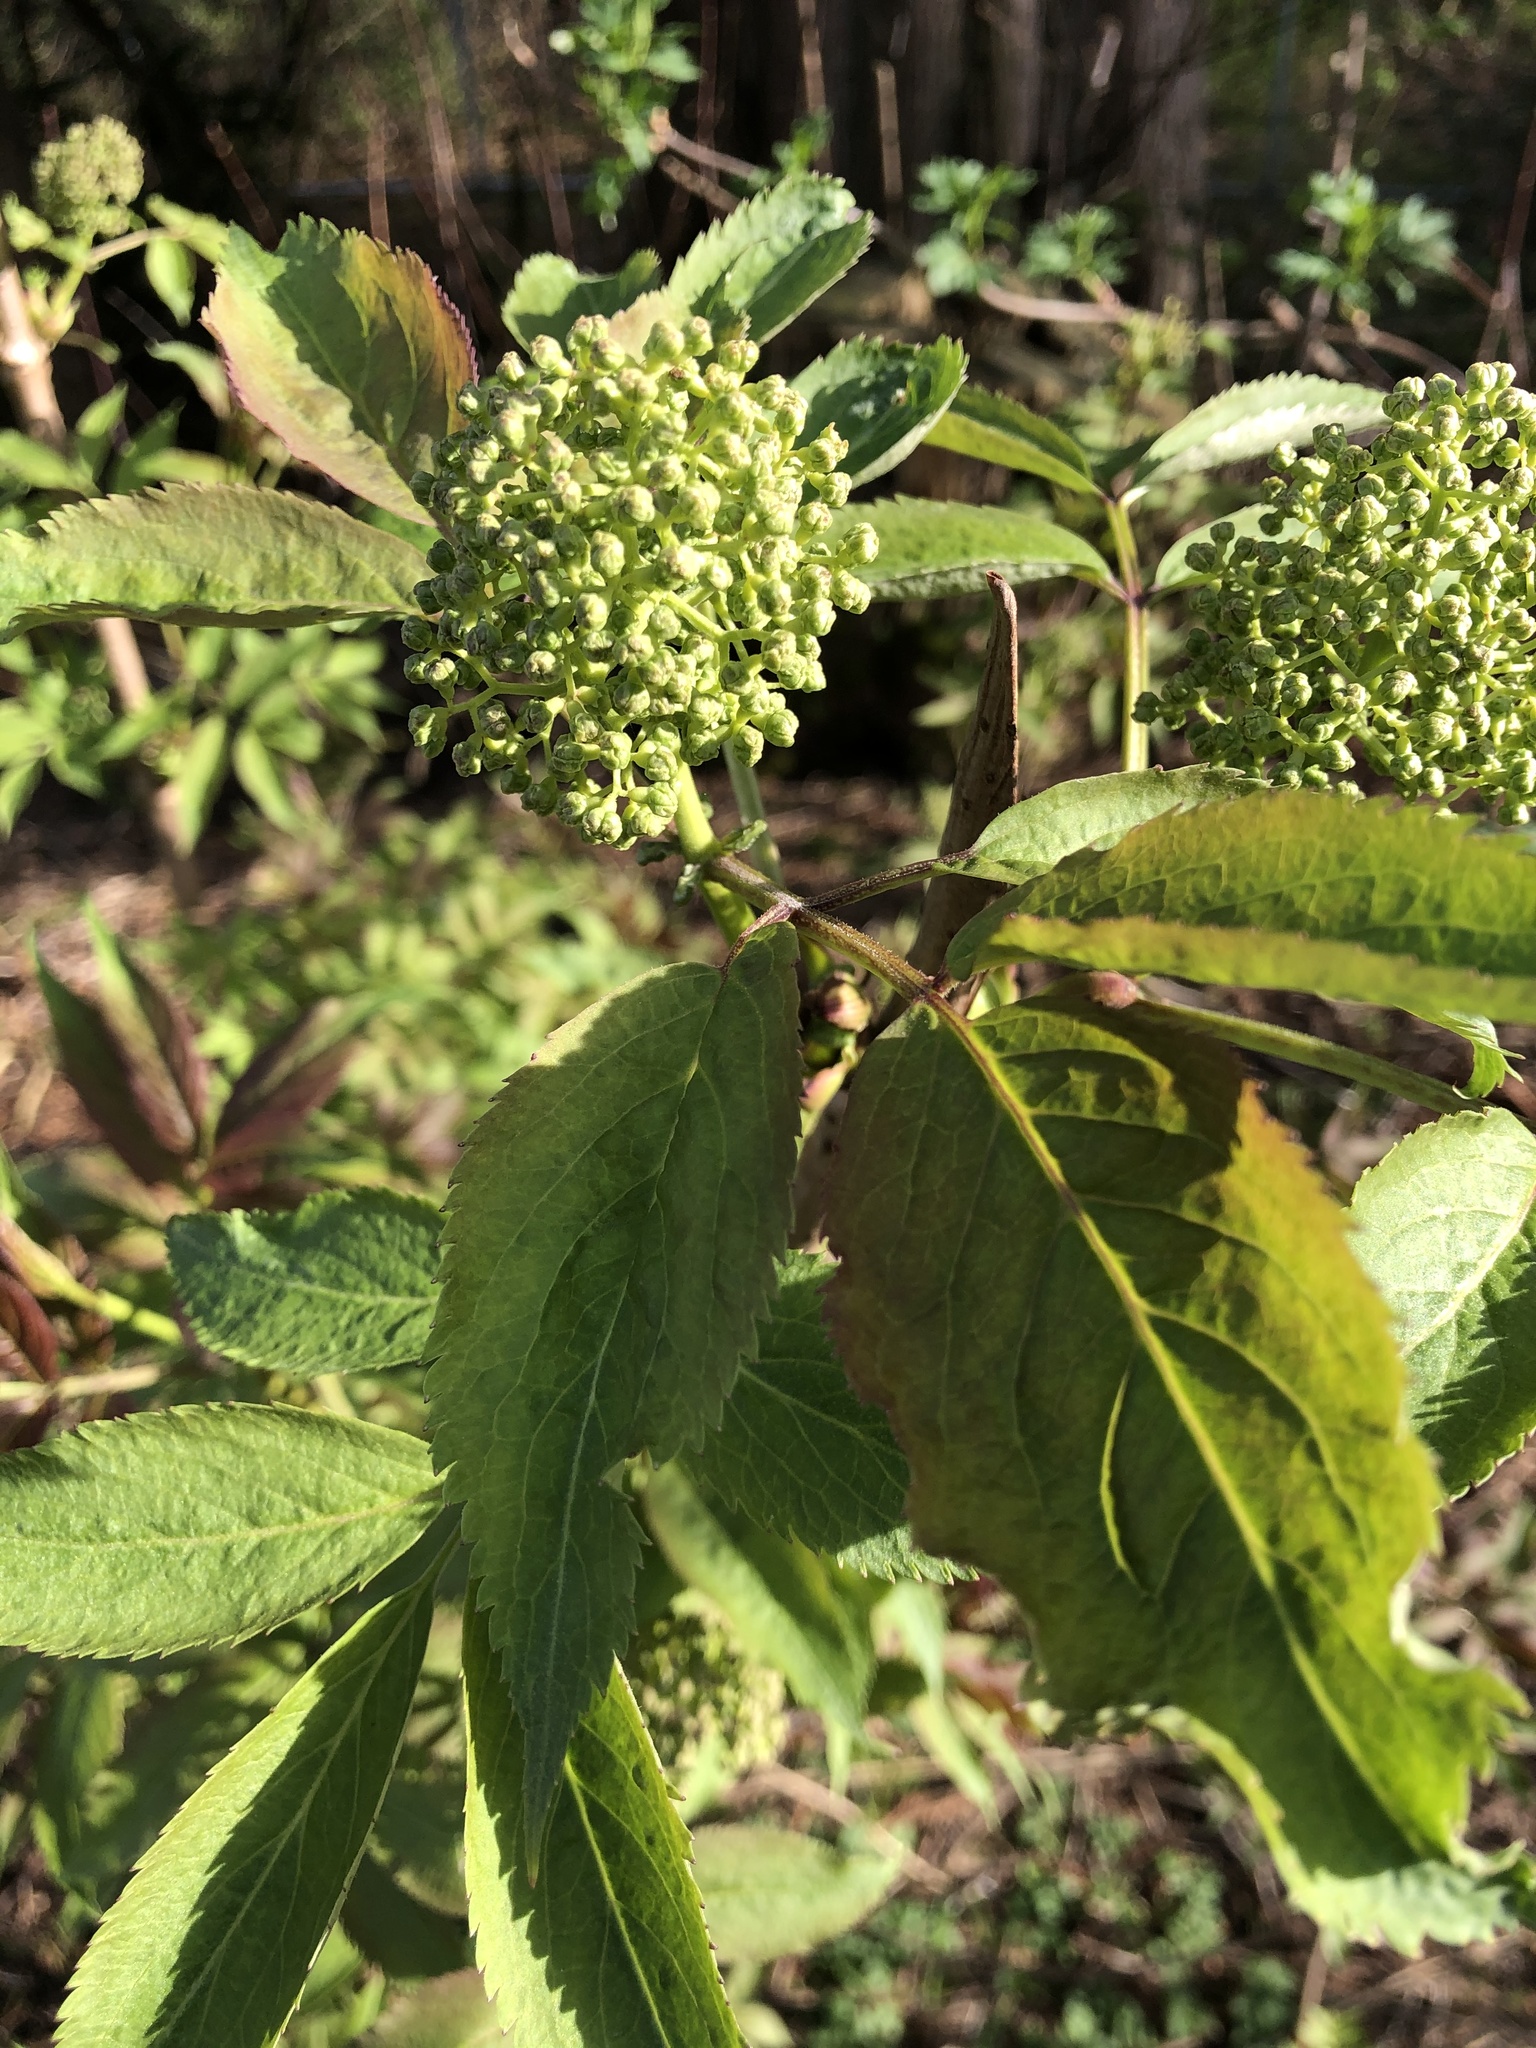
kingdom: Plantae
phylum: Tracheophyta
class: Magnoliopsida
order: Dipsacales
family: Viburnaceae
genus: Sambucus
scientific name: Sambucus racemosa
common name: Red-berried elder
